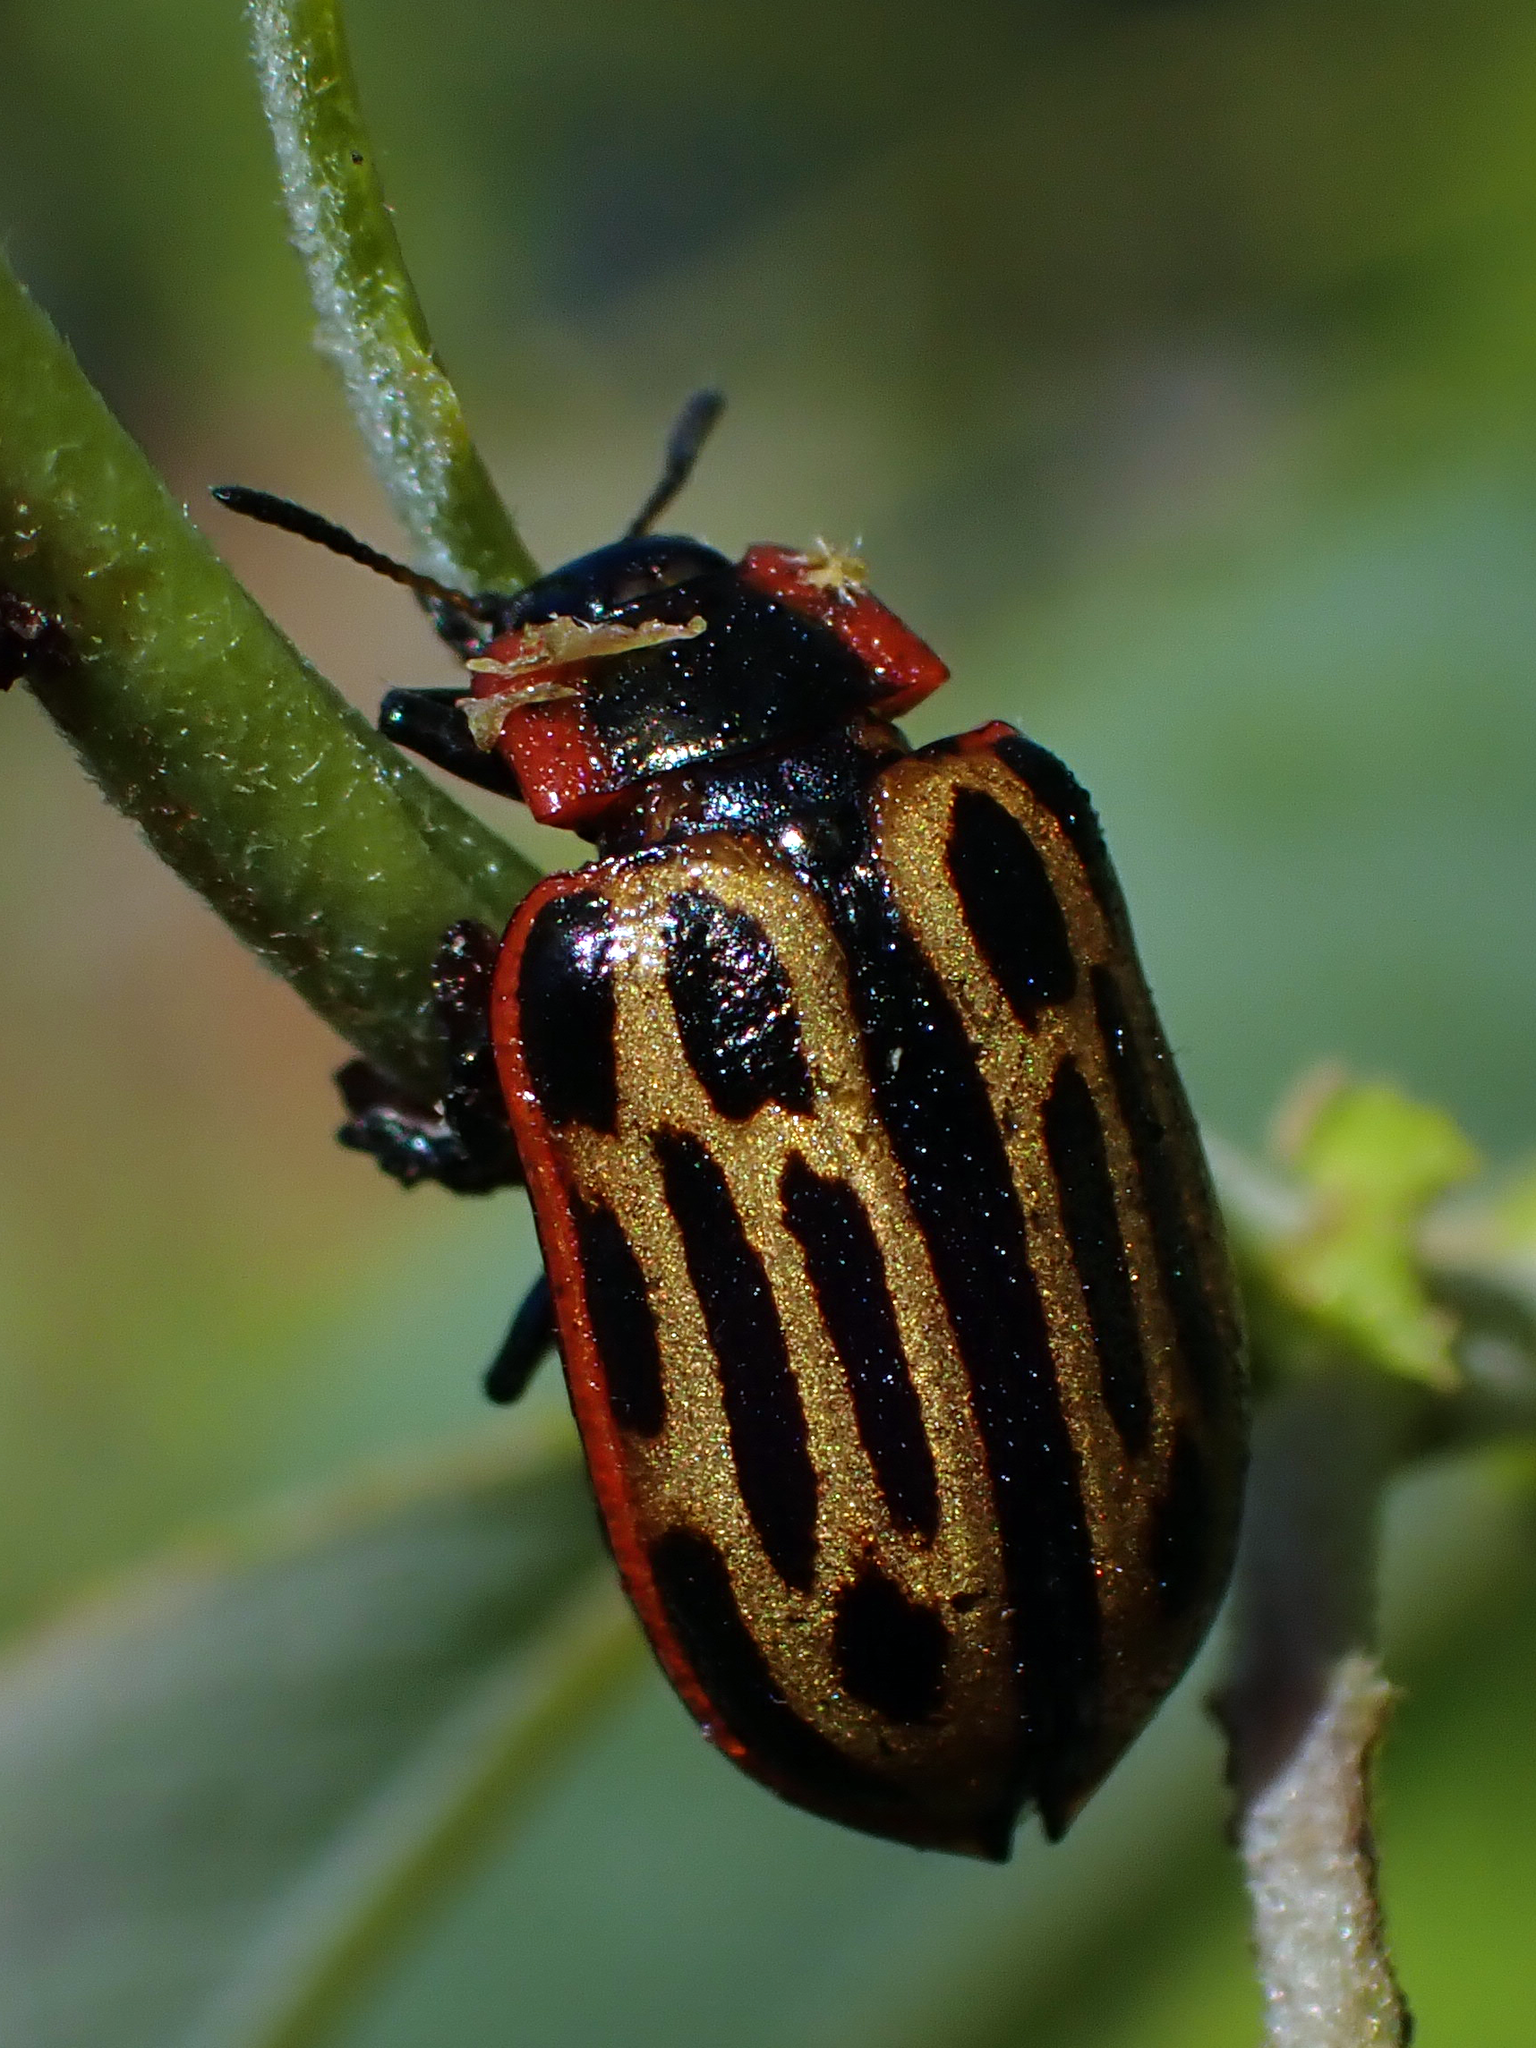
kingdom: Animalia
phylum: Arthropoda
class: Insecta
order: Coleoptera
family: Chrysomelidae
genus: Aethiopocassis
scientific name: Aethiopocassis scripta
